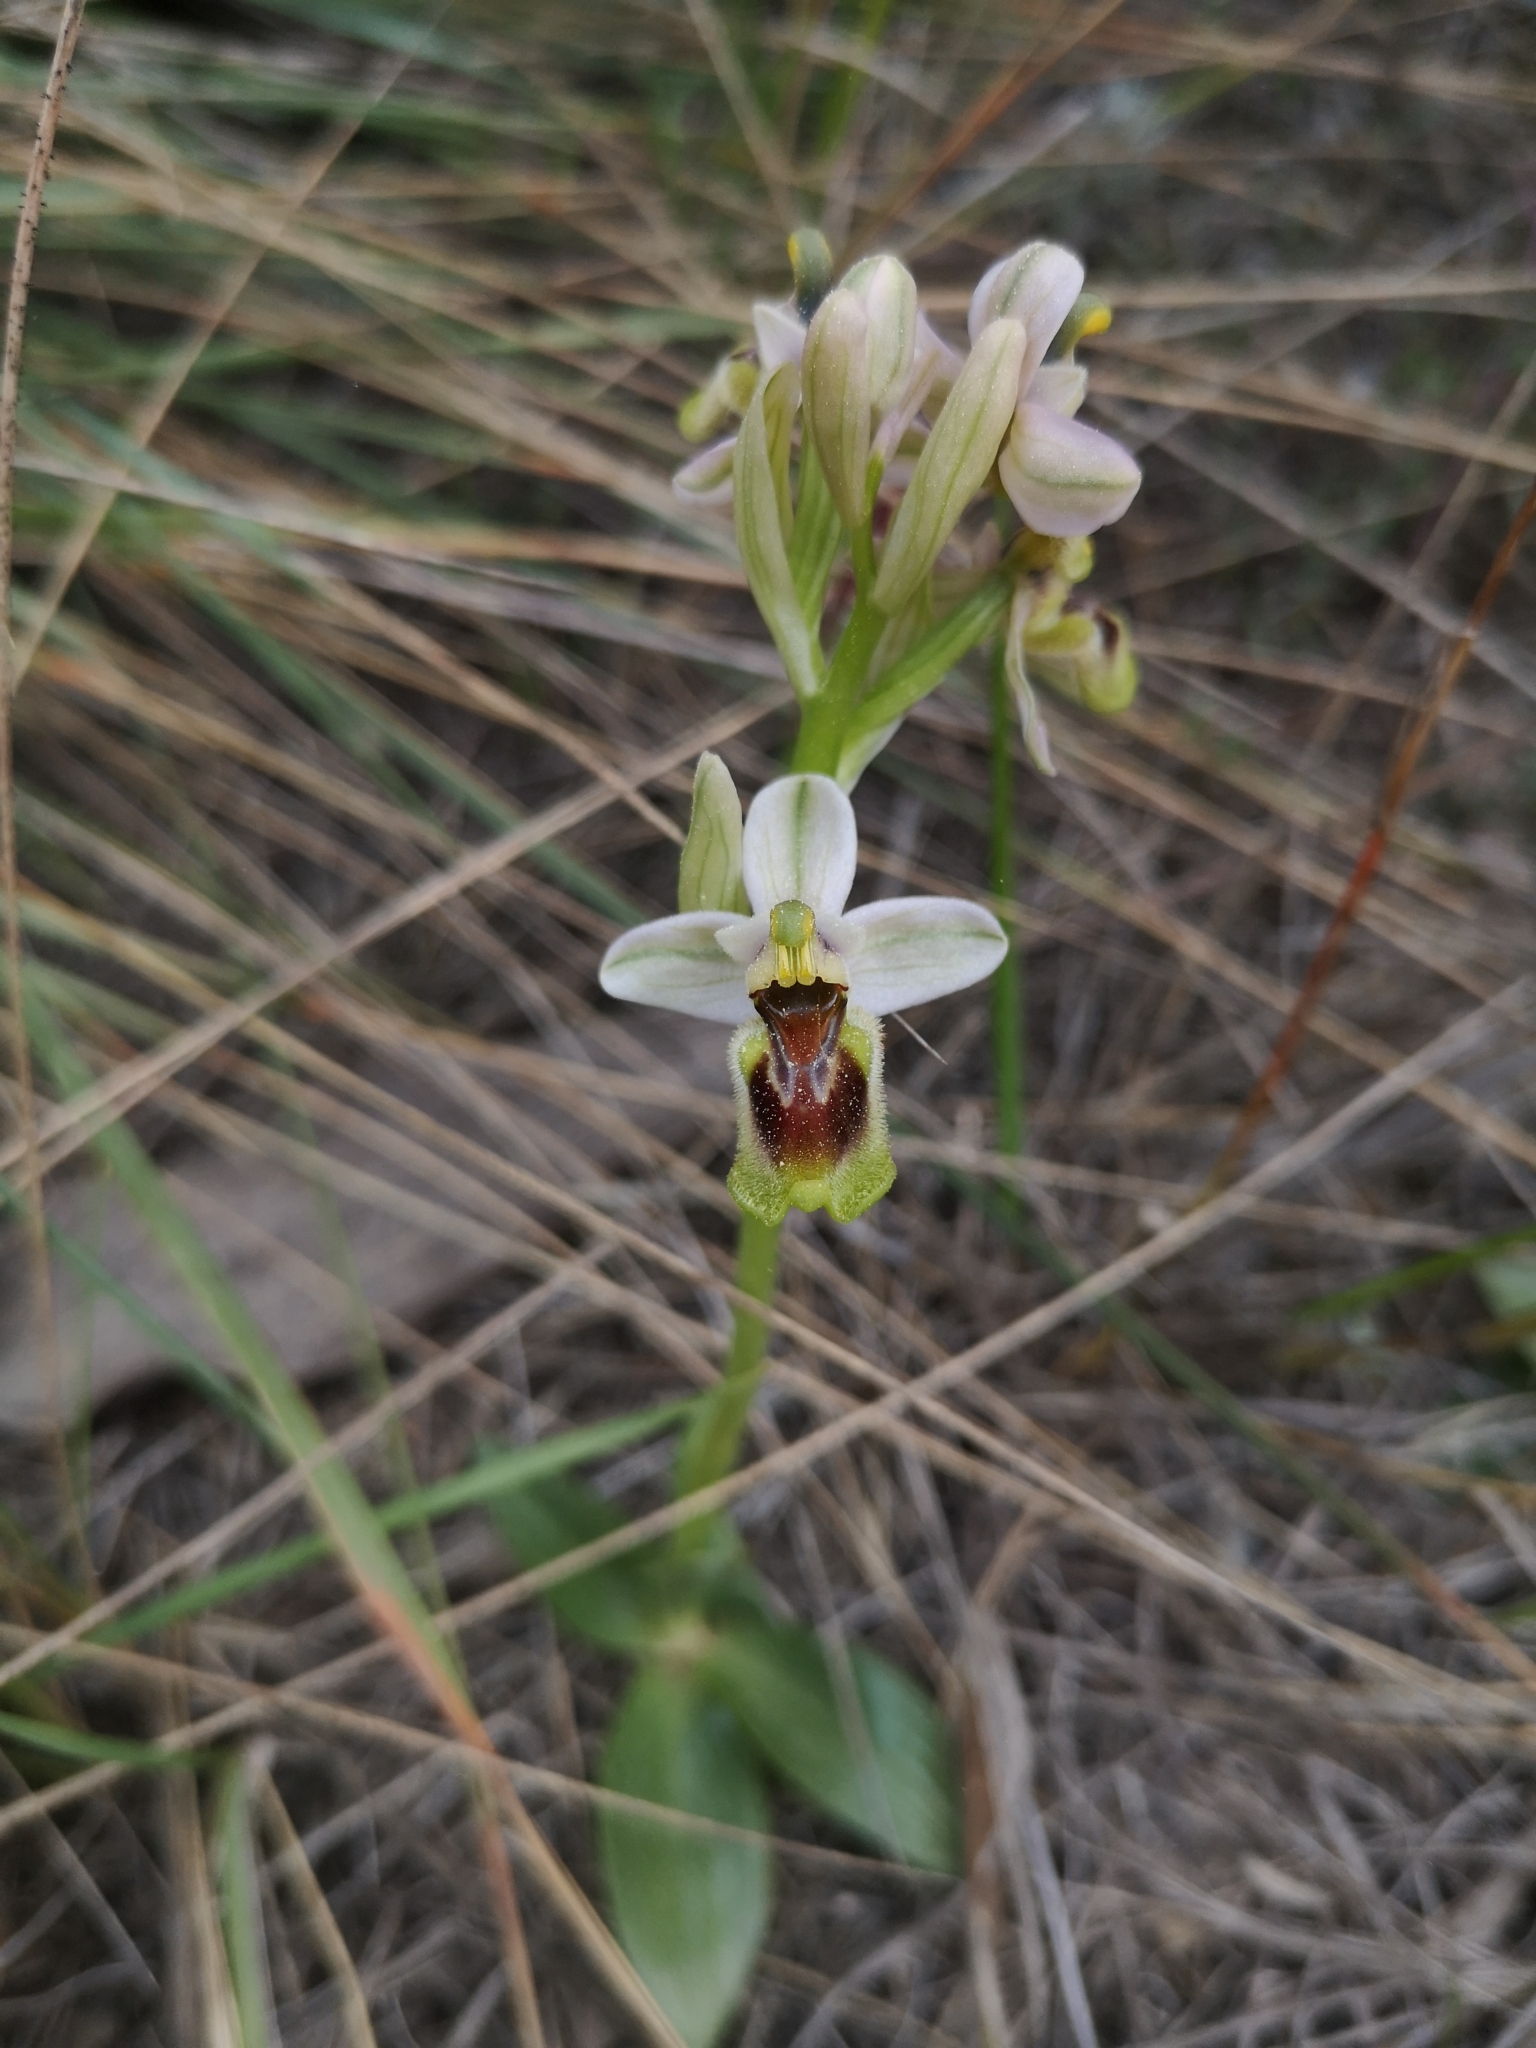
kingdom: Plantae
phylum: Tracheophyta
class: Liliopsida
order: Asparagales
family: Orchidaceae
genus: Ophrys
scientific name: Ophrys tenthredinifera
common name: Sawfly orchid
